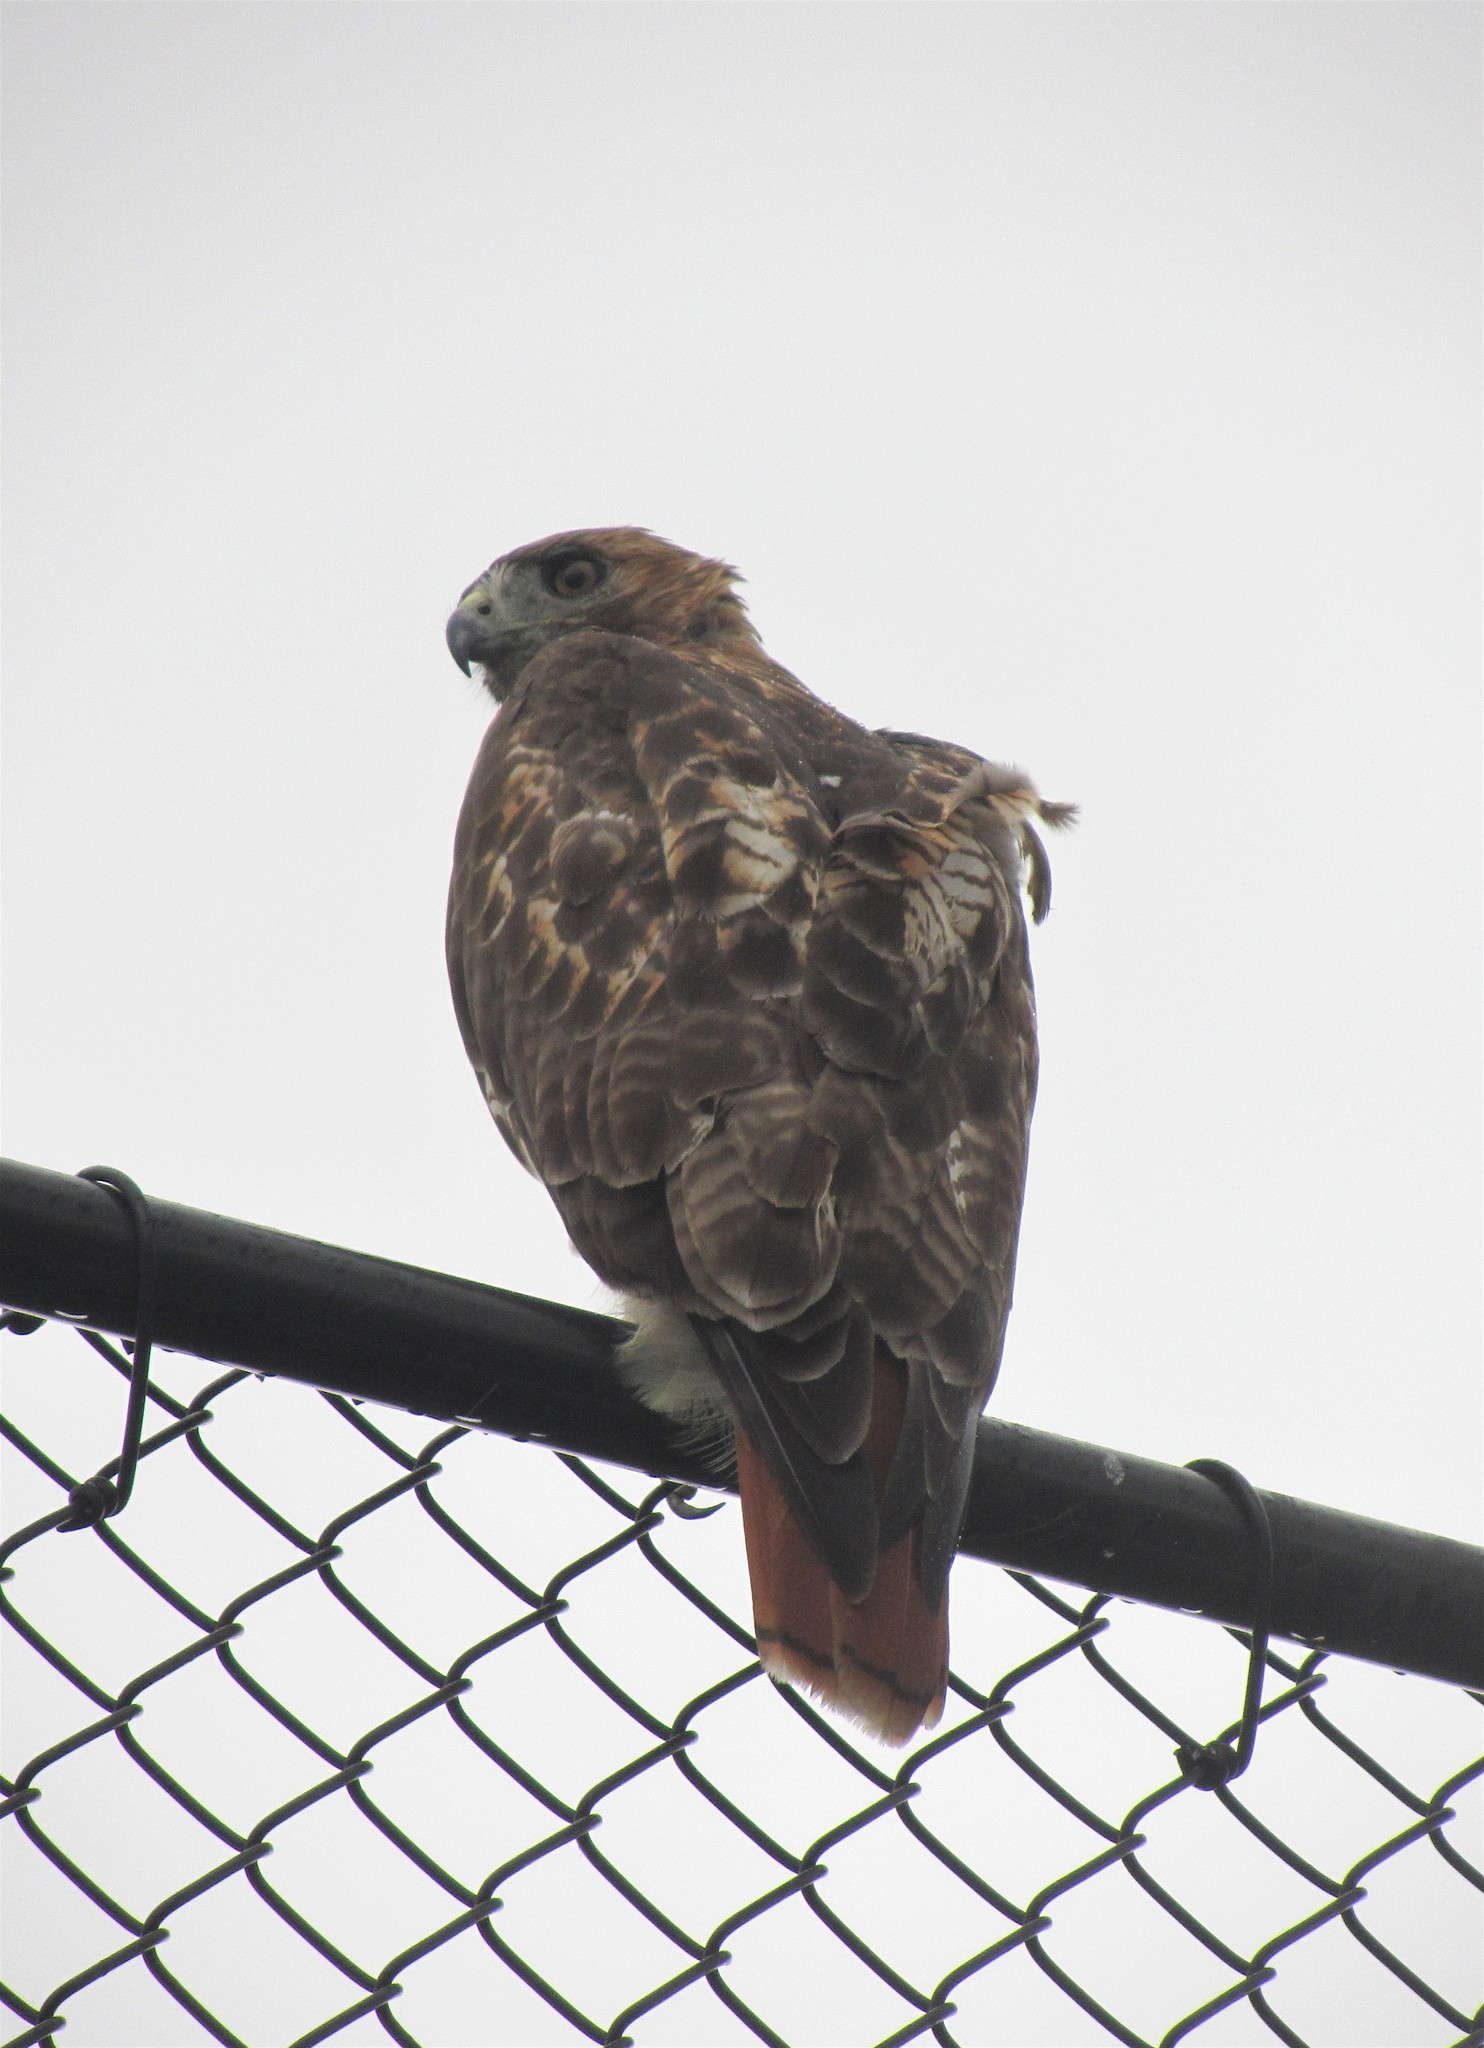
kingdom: Animalia
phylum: Chordata
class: Aves
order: Accipitriformes
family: Accipitridae
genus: Buteo
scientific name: Buteo jamaicensis
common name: Red-tailed hawk
